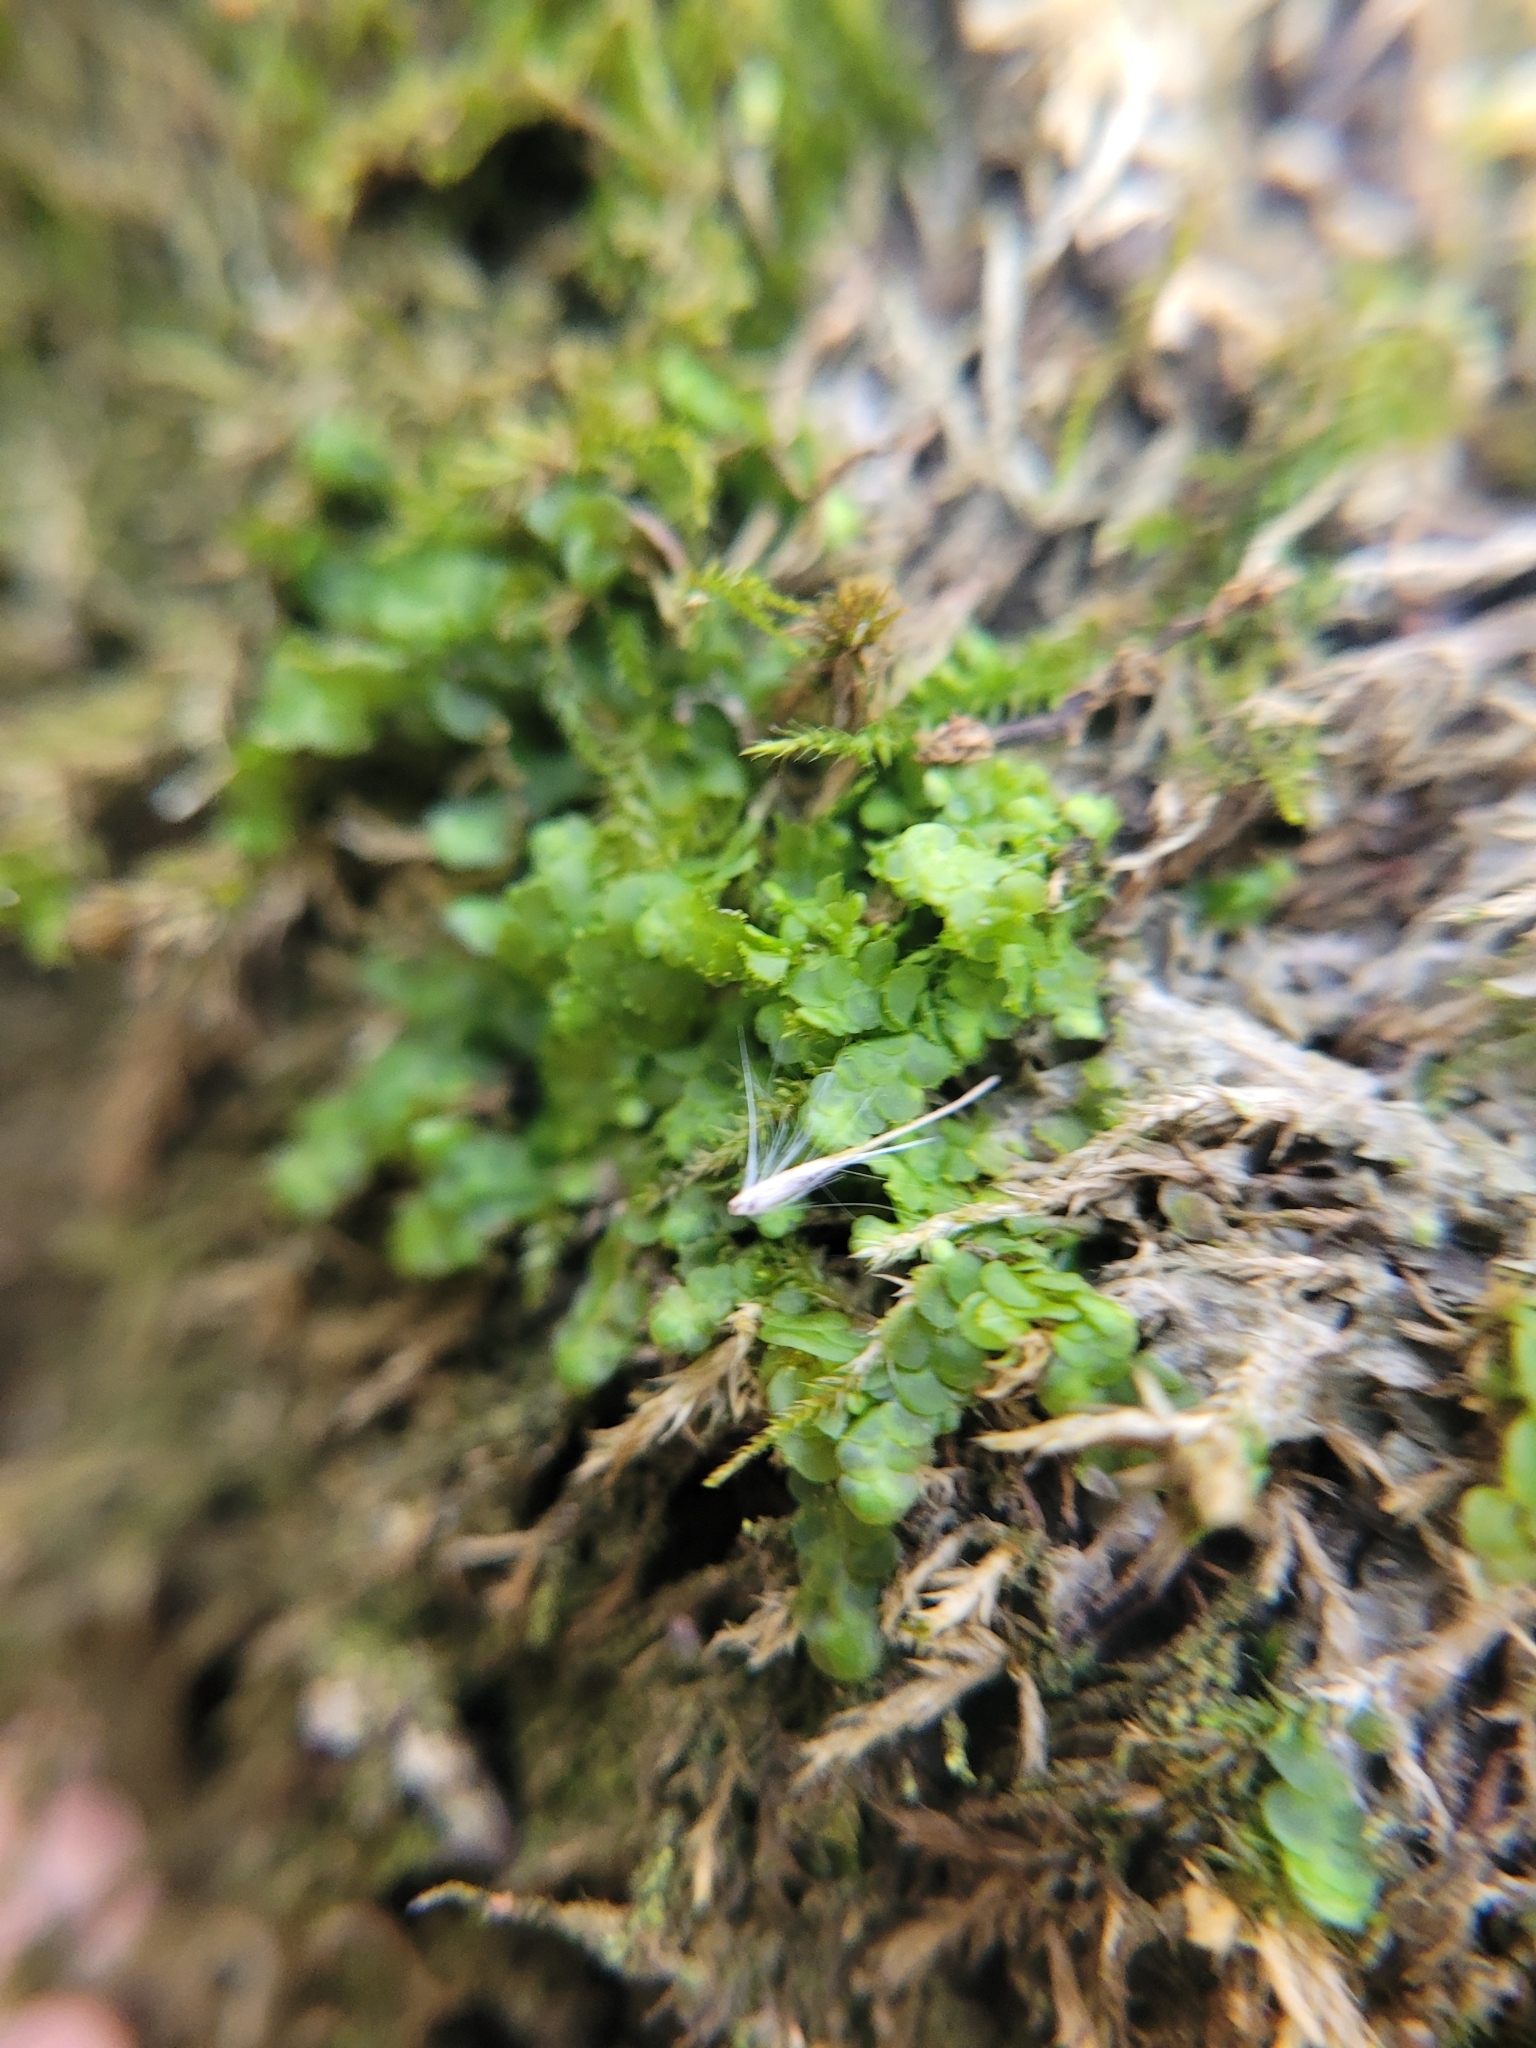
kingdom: Plantae
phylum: Marchantiophyta
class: Jungermanniopsida
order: Porellales
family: Radulaceae
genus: Radula
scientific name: Radula complanata
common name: Flat-leaved scalewort
